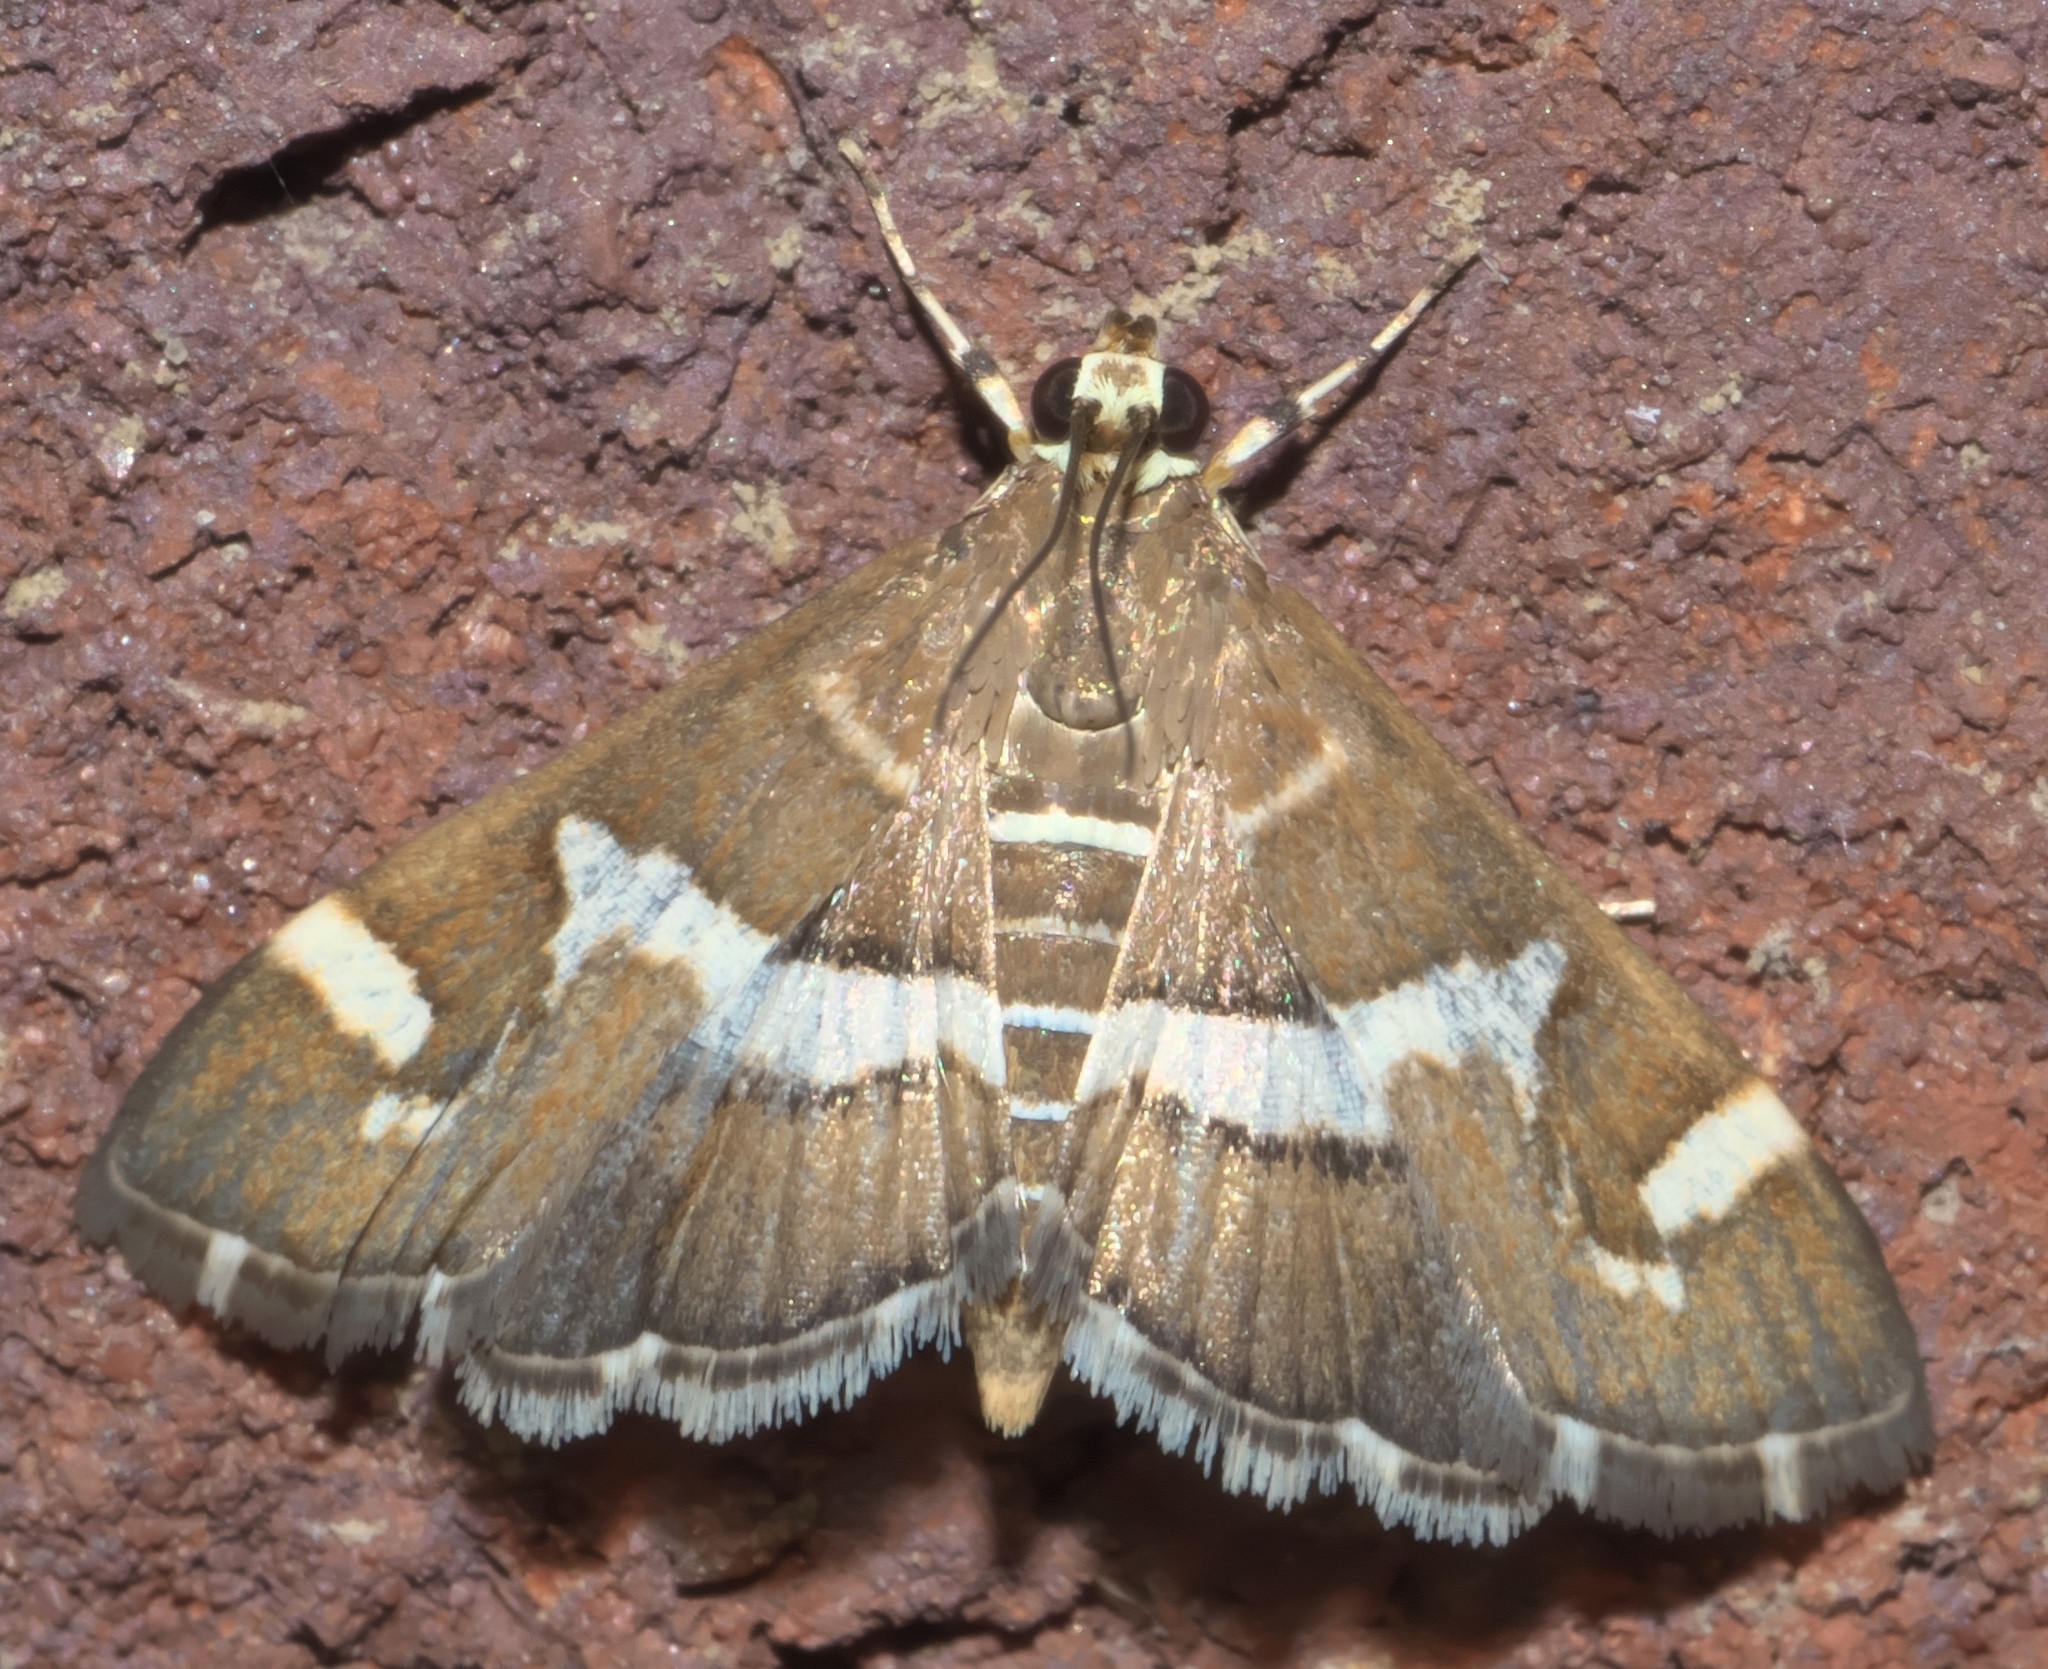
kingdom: Animalia
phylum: Arthropoda
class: Insecta
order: Lepidoptera
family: Crambidae
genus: Spoladea
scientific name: Spoladea recurvalis
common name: Beet webworm moth
